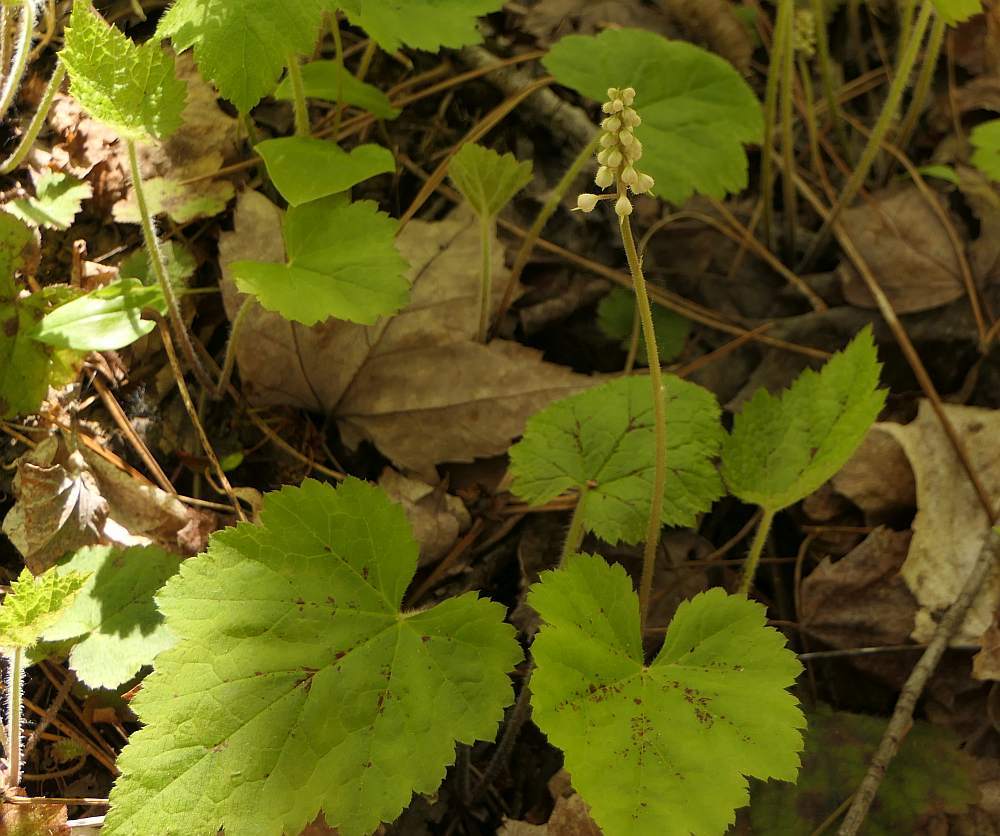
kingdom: Plantae
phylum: Tracheophyta
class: Magnoliopsida
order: Saxifragales
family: Saxifragaceae
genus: Tiarella
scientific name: Tiarella stolonifera
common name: Stoloniferous foamflower
